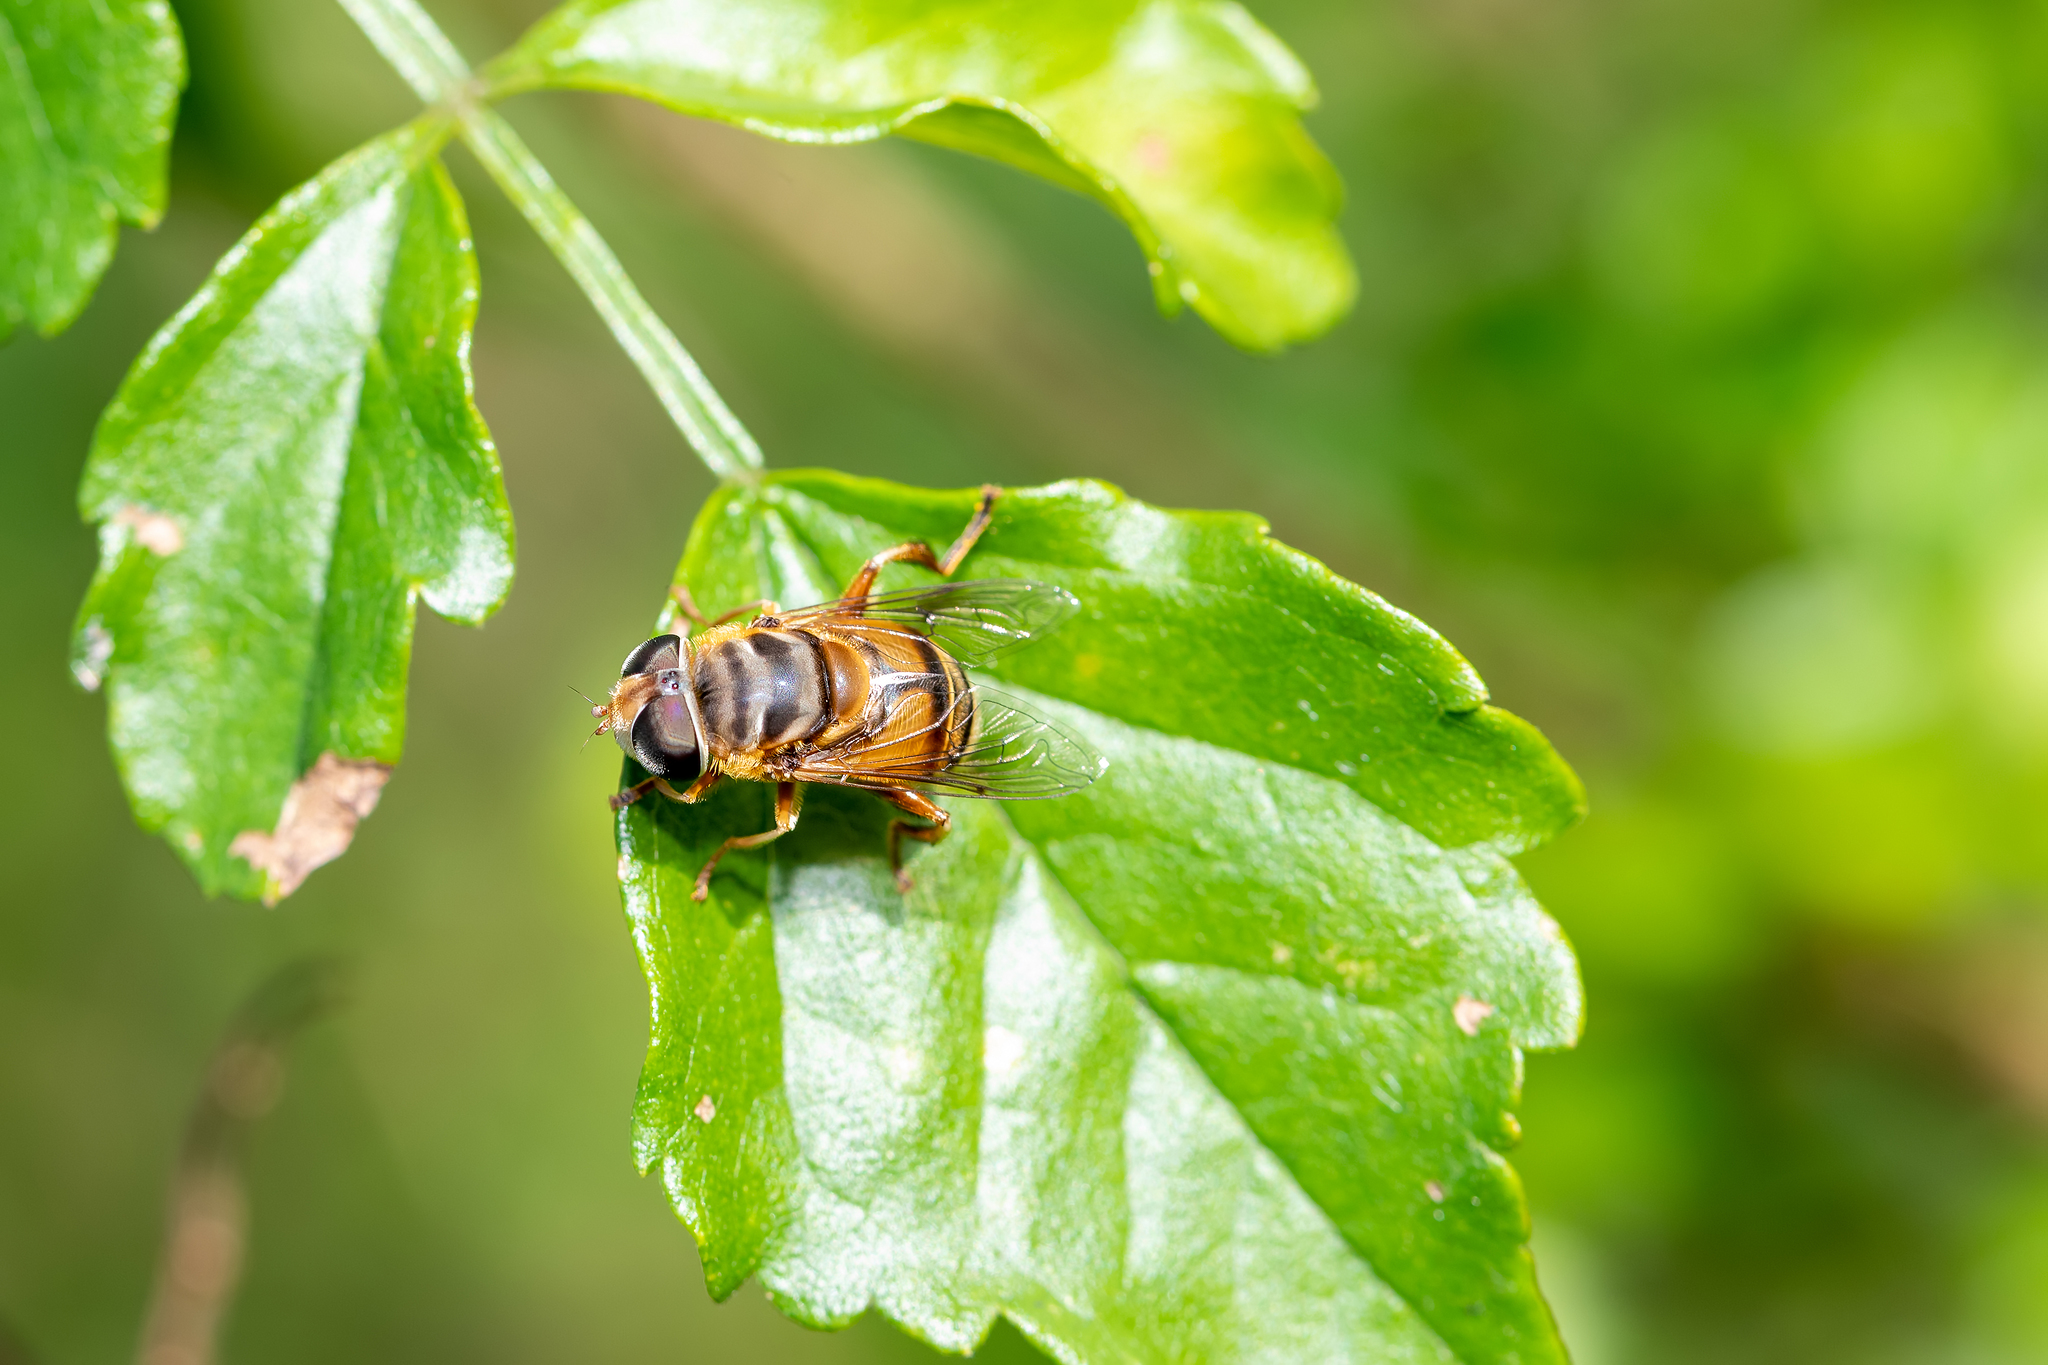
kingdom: Animalia
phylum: Arthropoda
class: Insecta
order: Diptera
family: Syrphidae
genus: Palpada
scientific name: Palpada vinetorum
